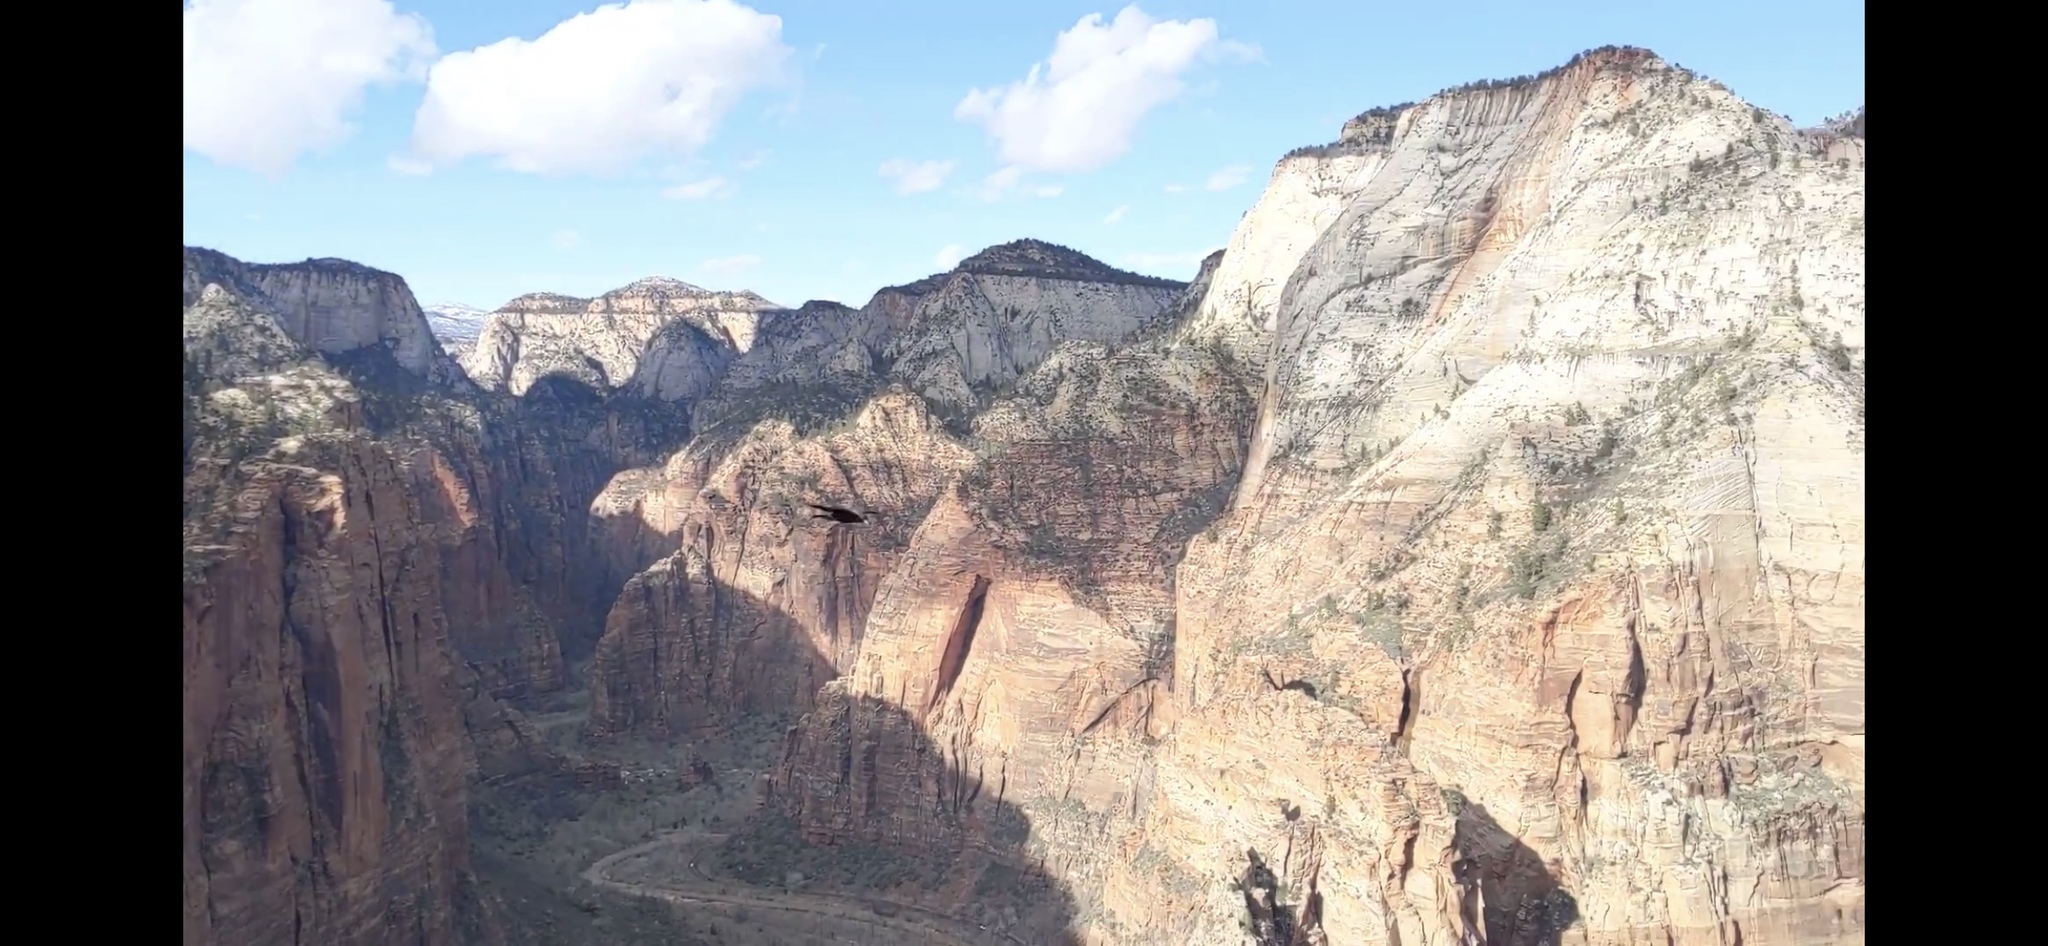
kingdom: Animalia
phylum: Chordata
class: Aves
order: Passeriformes
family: Corvidae
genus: Corvus
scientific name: Corvus corax
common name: Common raven
